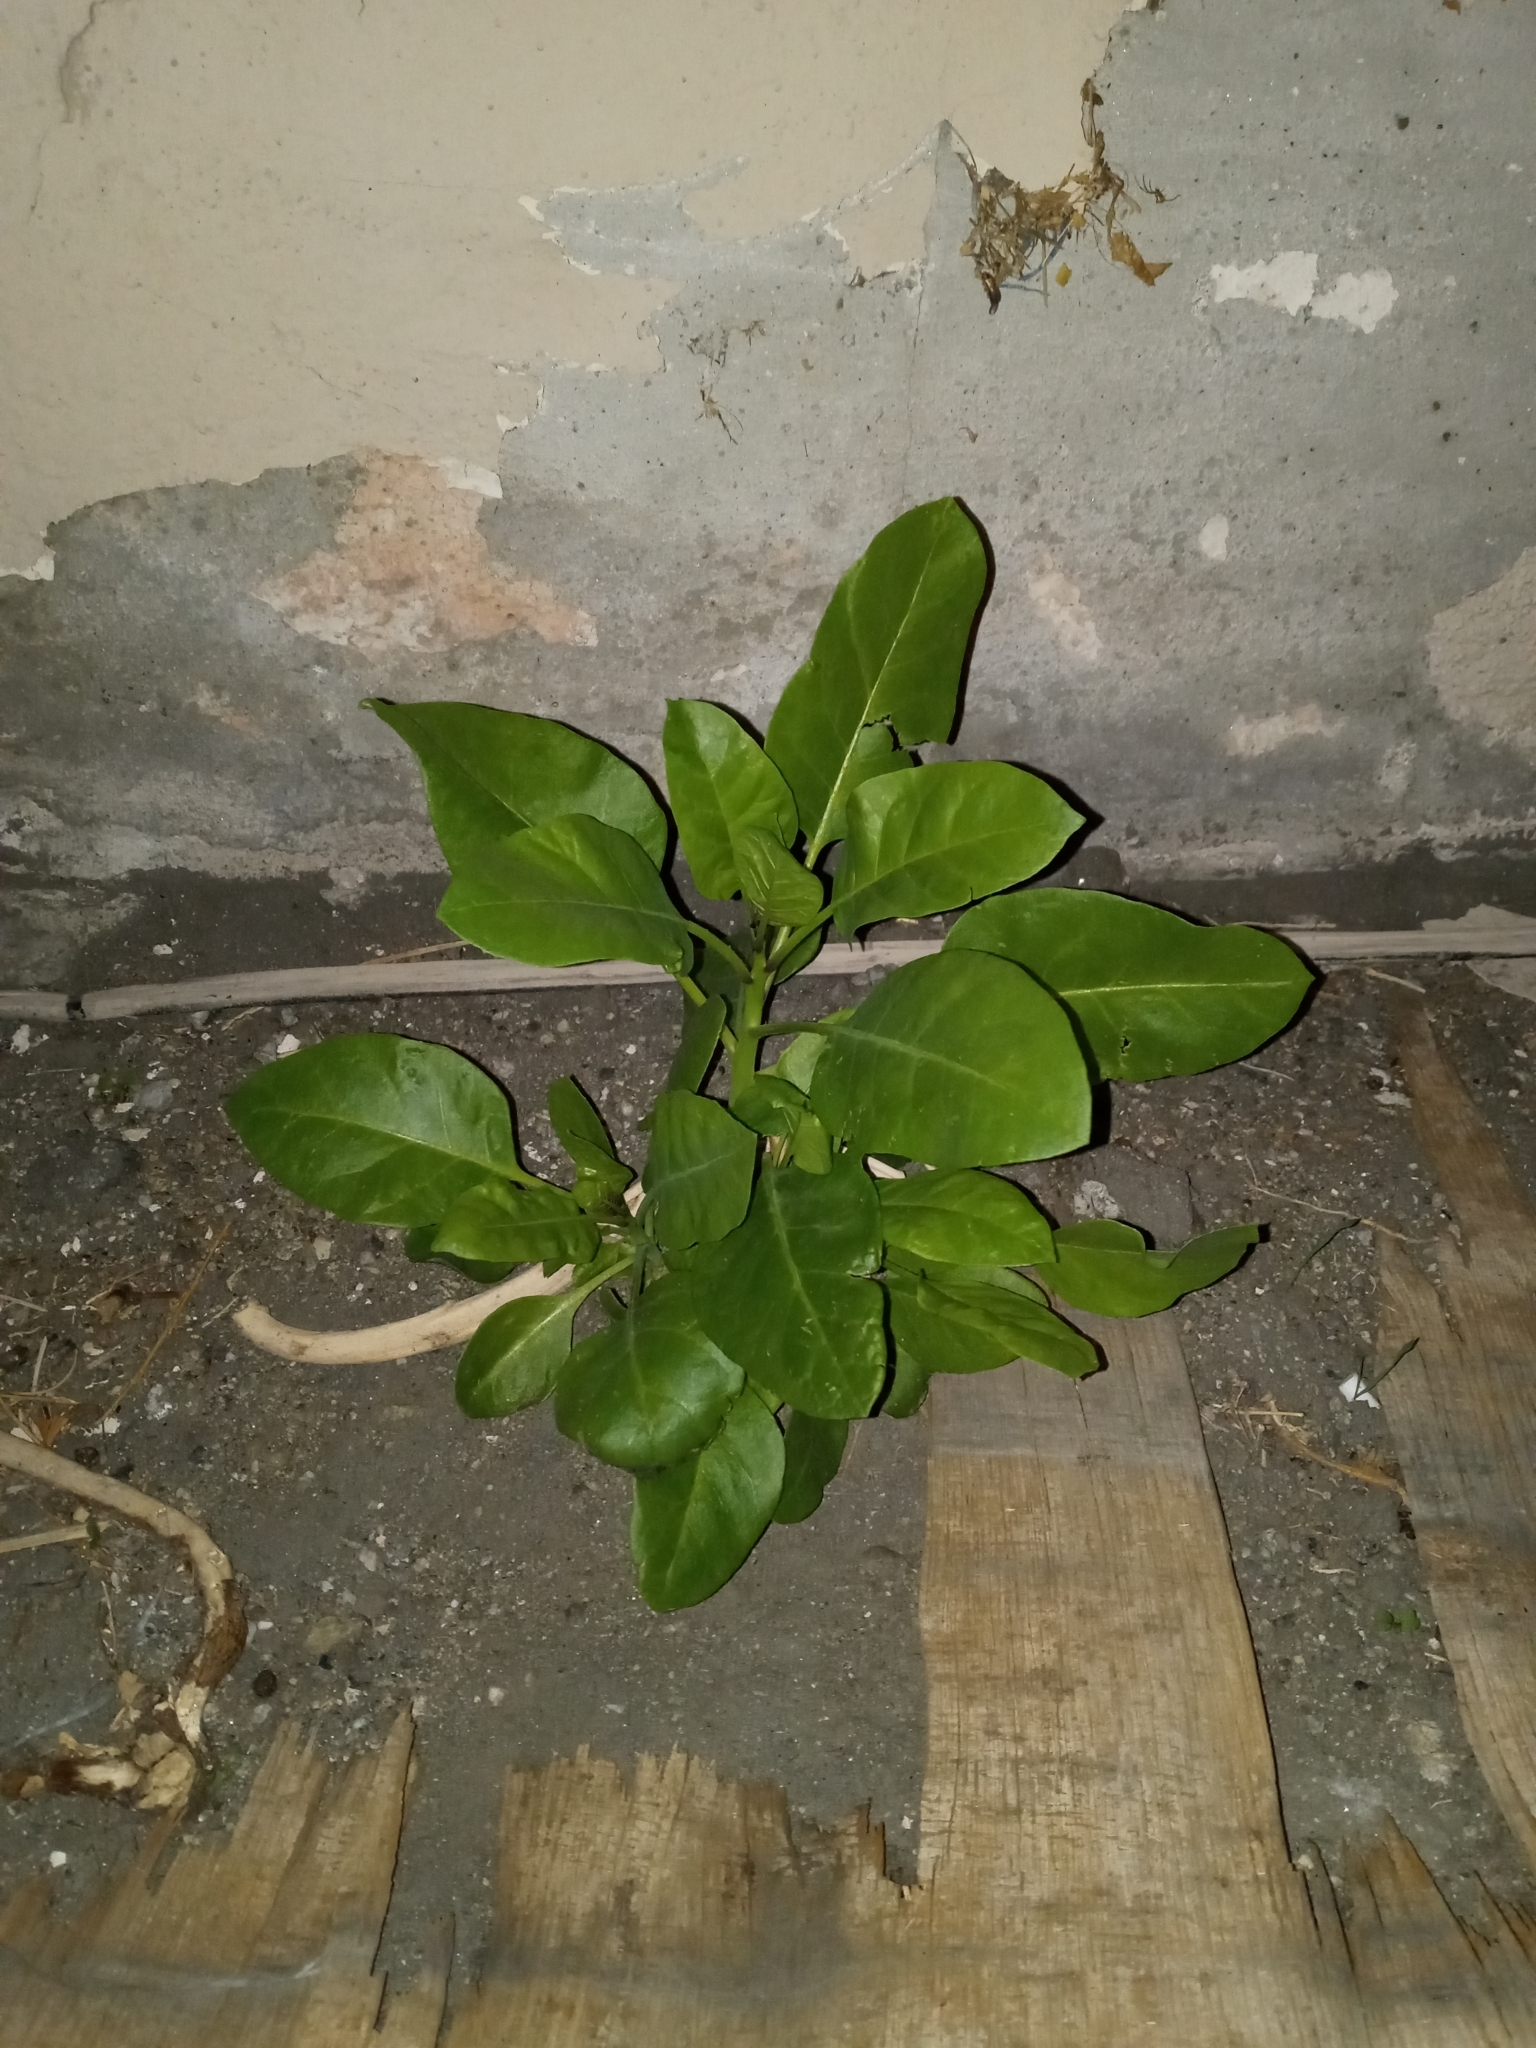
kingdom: Plantae
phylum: Tracheophyta
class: Magnoliopsida
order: Solanales
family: Solanaceae
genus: Nicotiana
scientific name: Nicotiana glauca
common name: Tree tobacco
